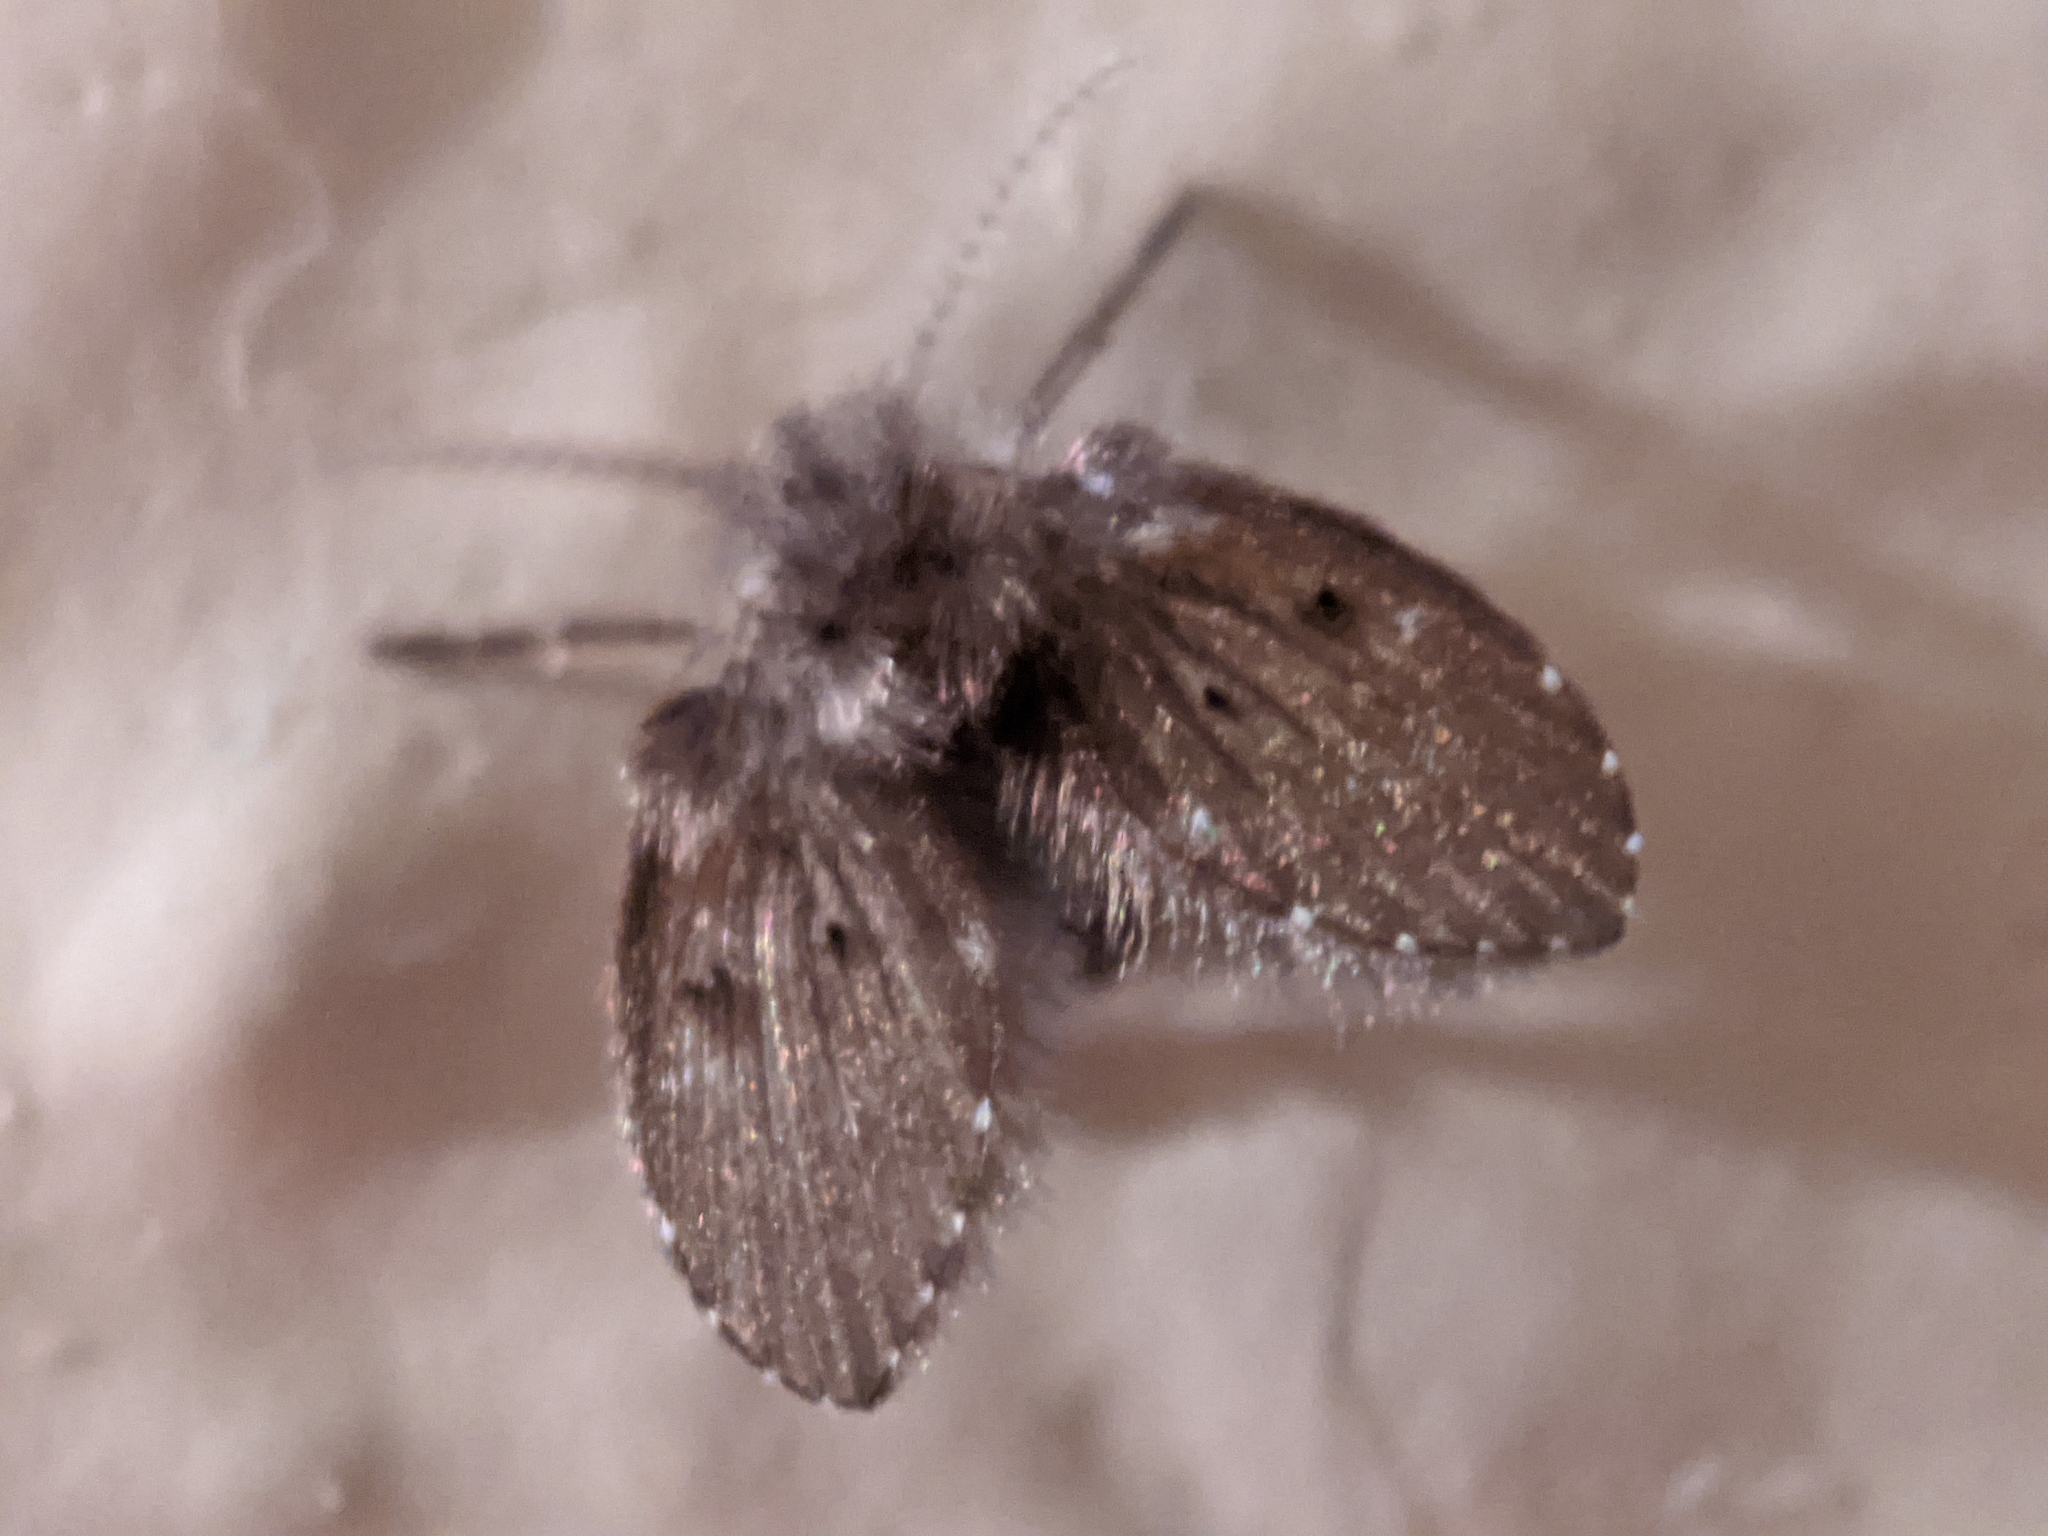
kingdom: Animalia
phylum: Arthropoda
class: Insecta
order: Diptera
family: Psychodidae
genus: Clogmia
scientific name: Clogmia albipunctatus
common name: White-spotted moth fly
